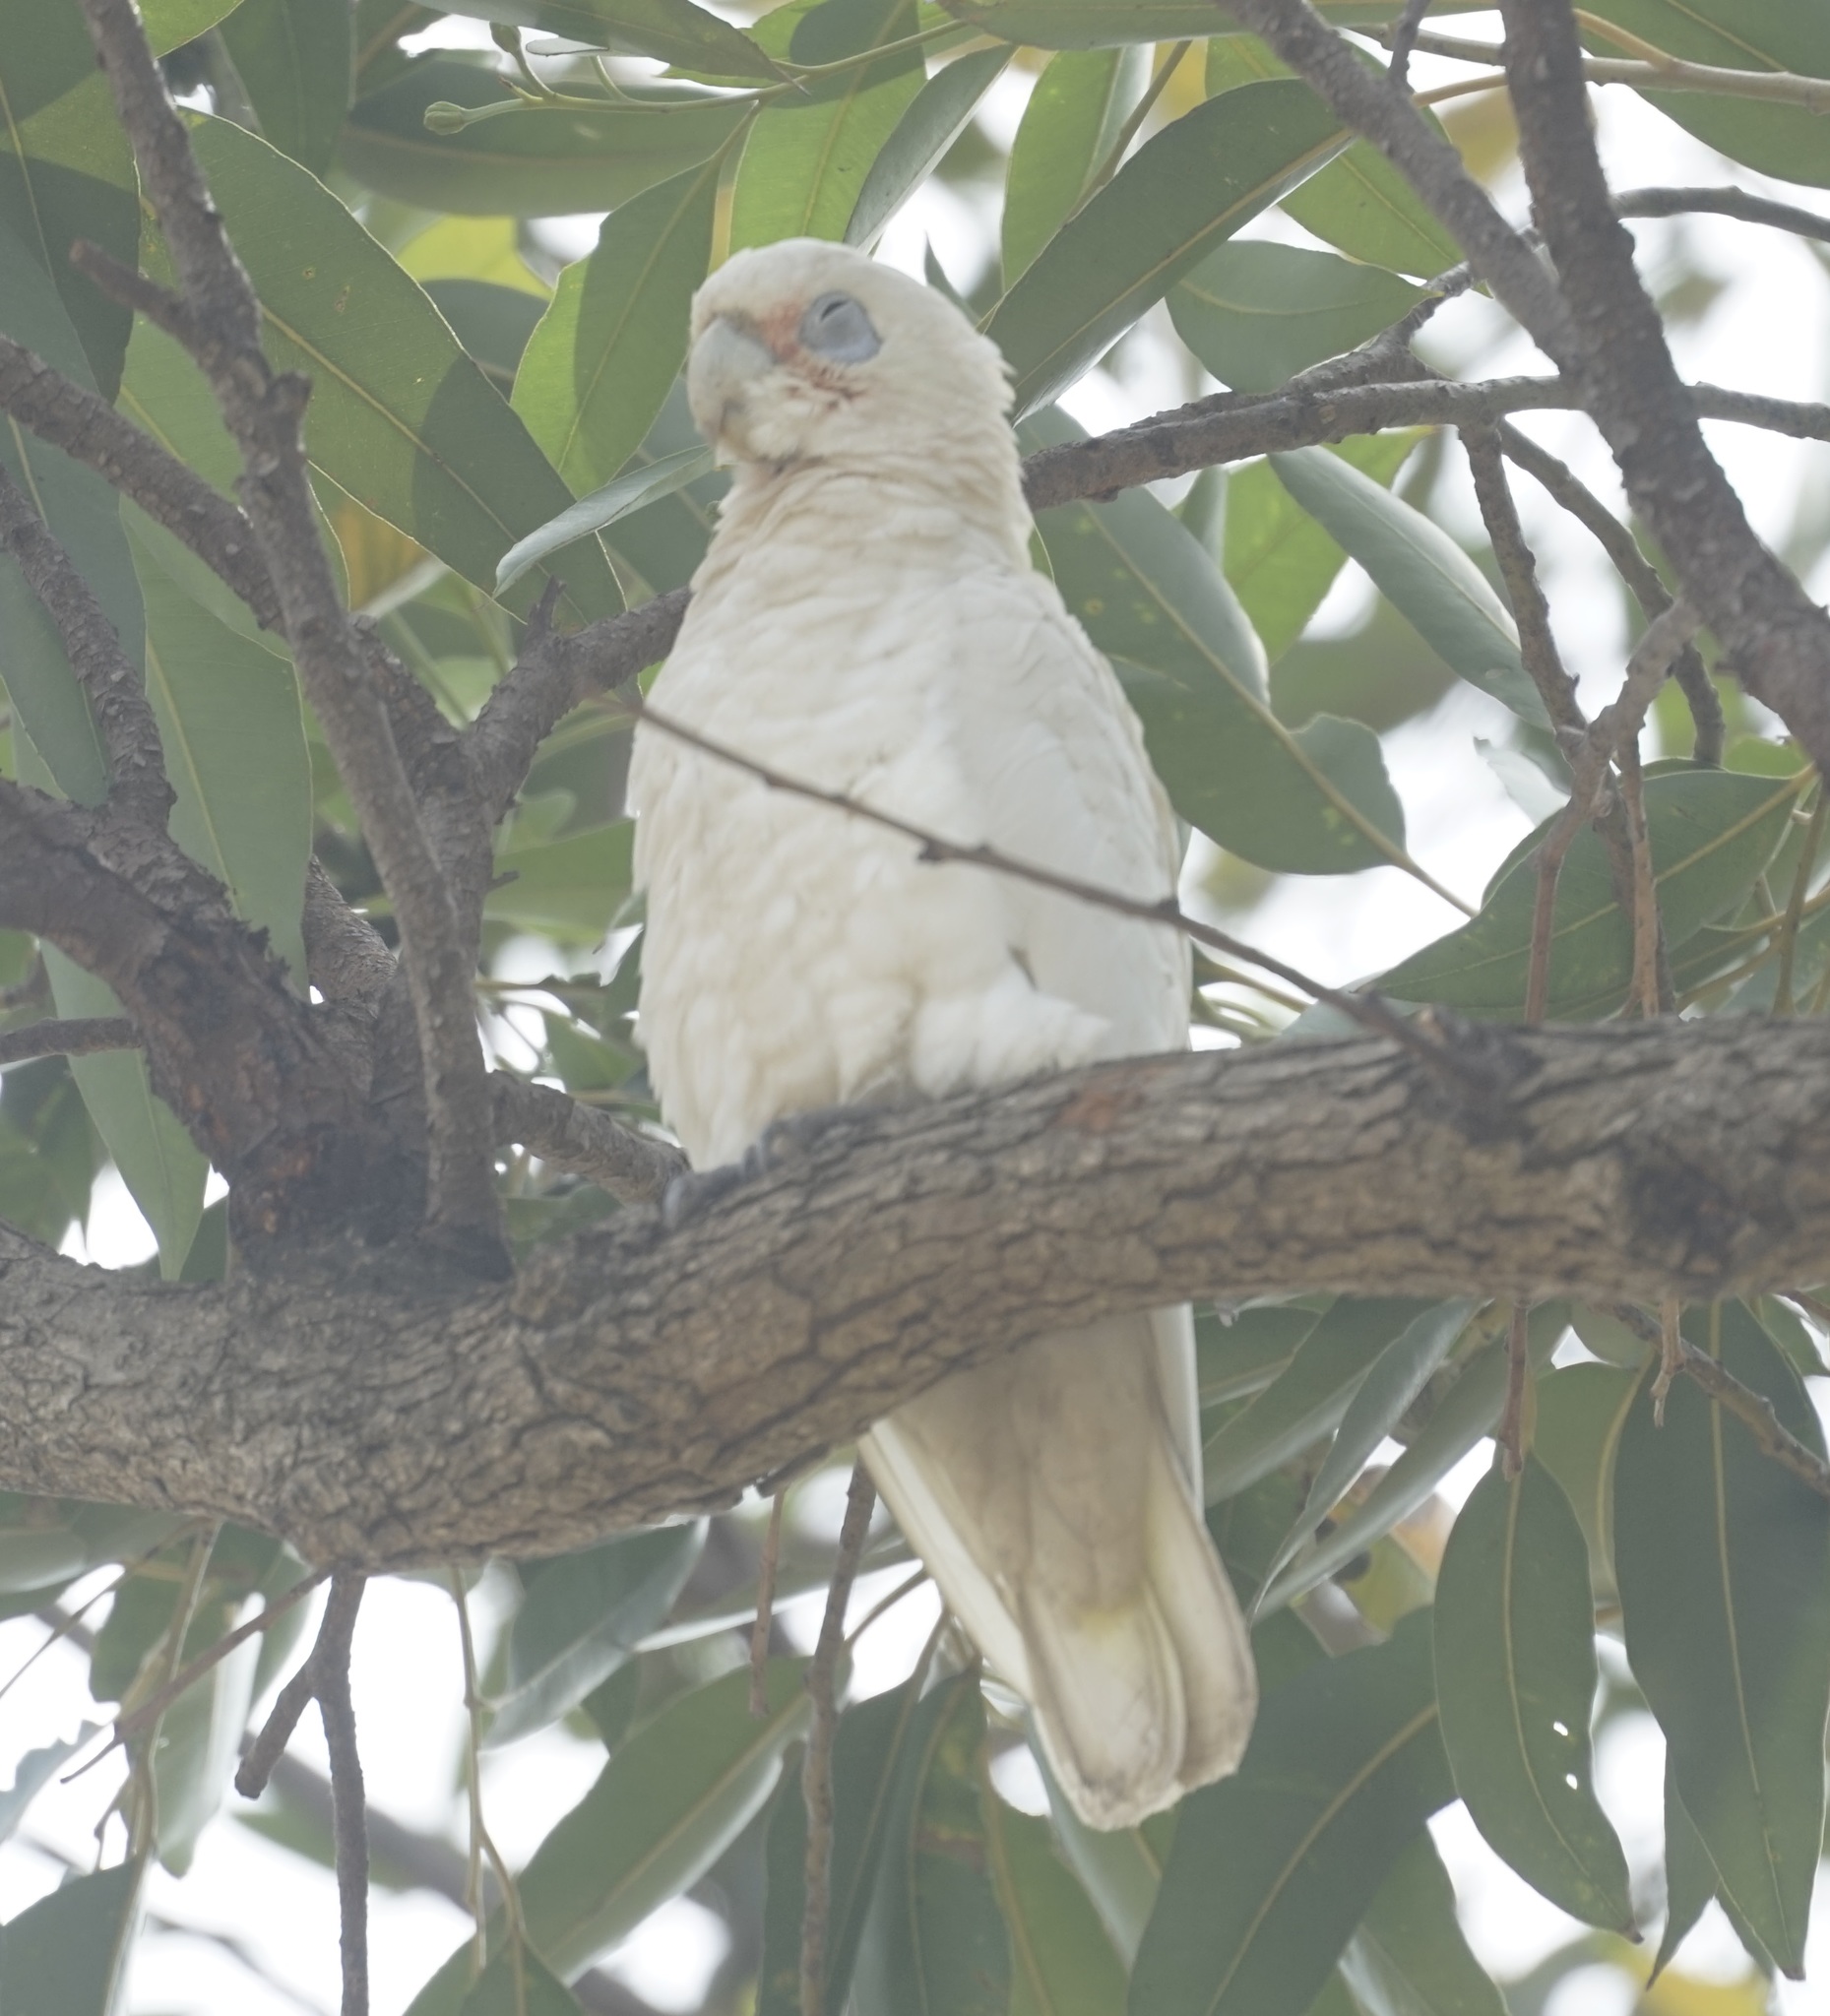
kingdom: Animalia
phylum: Chordata
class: Aves
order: Psittaciformes
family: Psittacidae
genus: Cacatua
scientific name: Cacatua sanguinea
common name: Little corella
